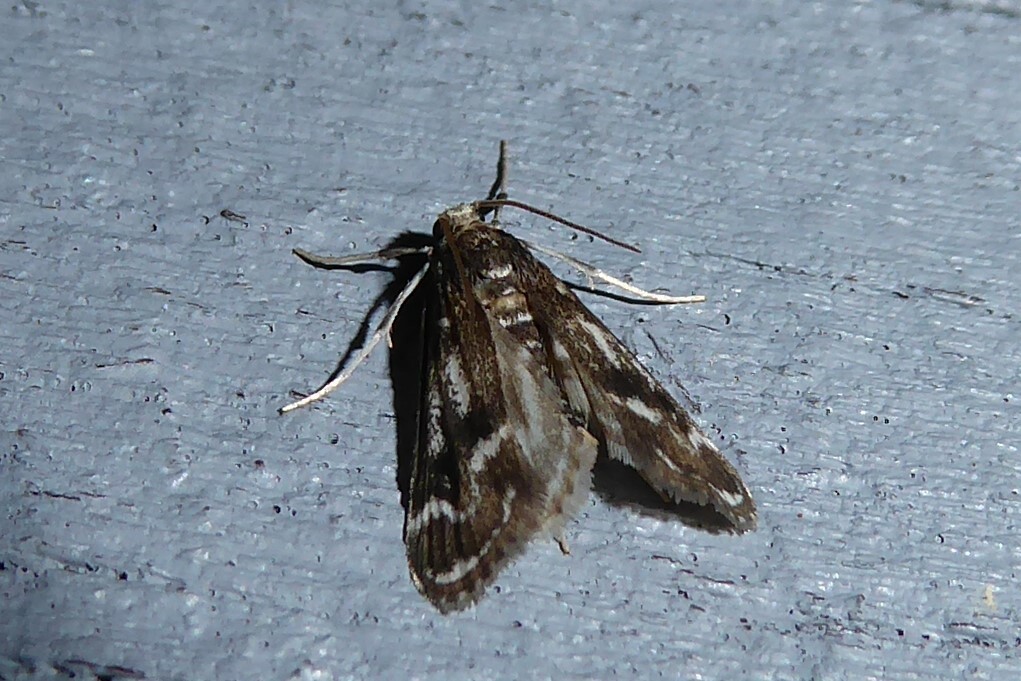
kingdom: Animalia
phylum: Arthropoda
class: Insecta
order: Lepidoptera
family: Crambidae
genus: Hygraula
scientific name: Hygraula nitens
